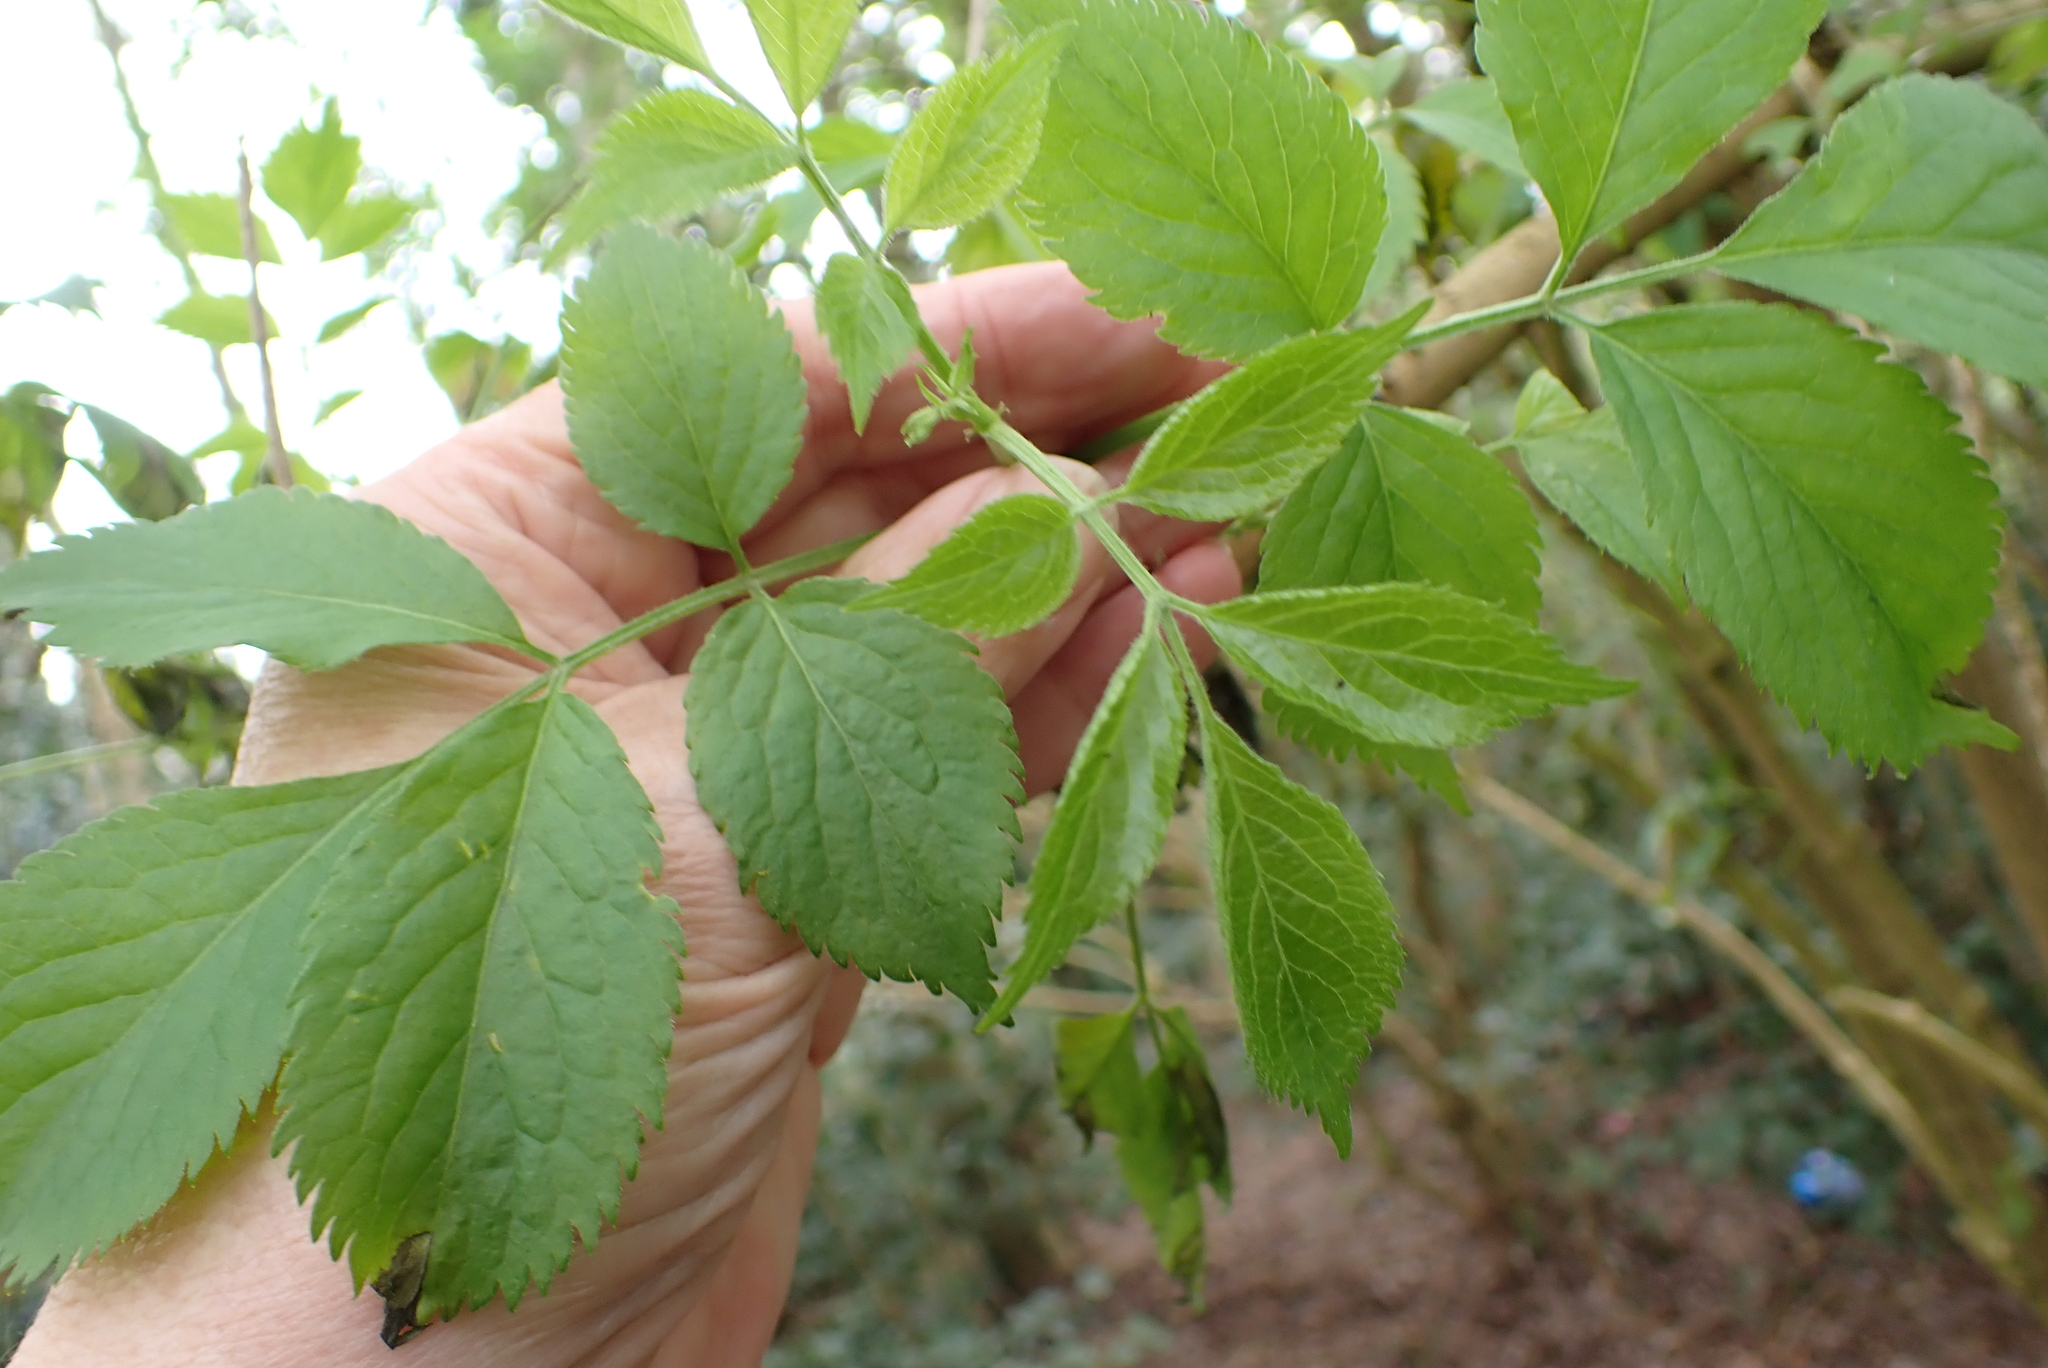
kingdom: Plantae
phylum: Tracheophyta
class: Magnoliopsida
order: Dipsacales
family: Viburnaceae
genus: Sambucus
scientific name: Sambucus nigra
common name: Elder
